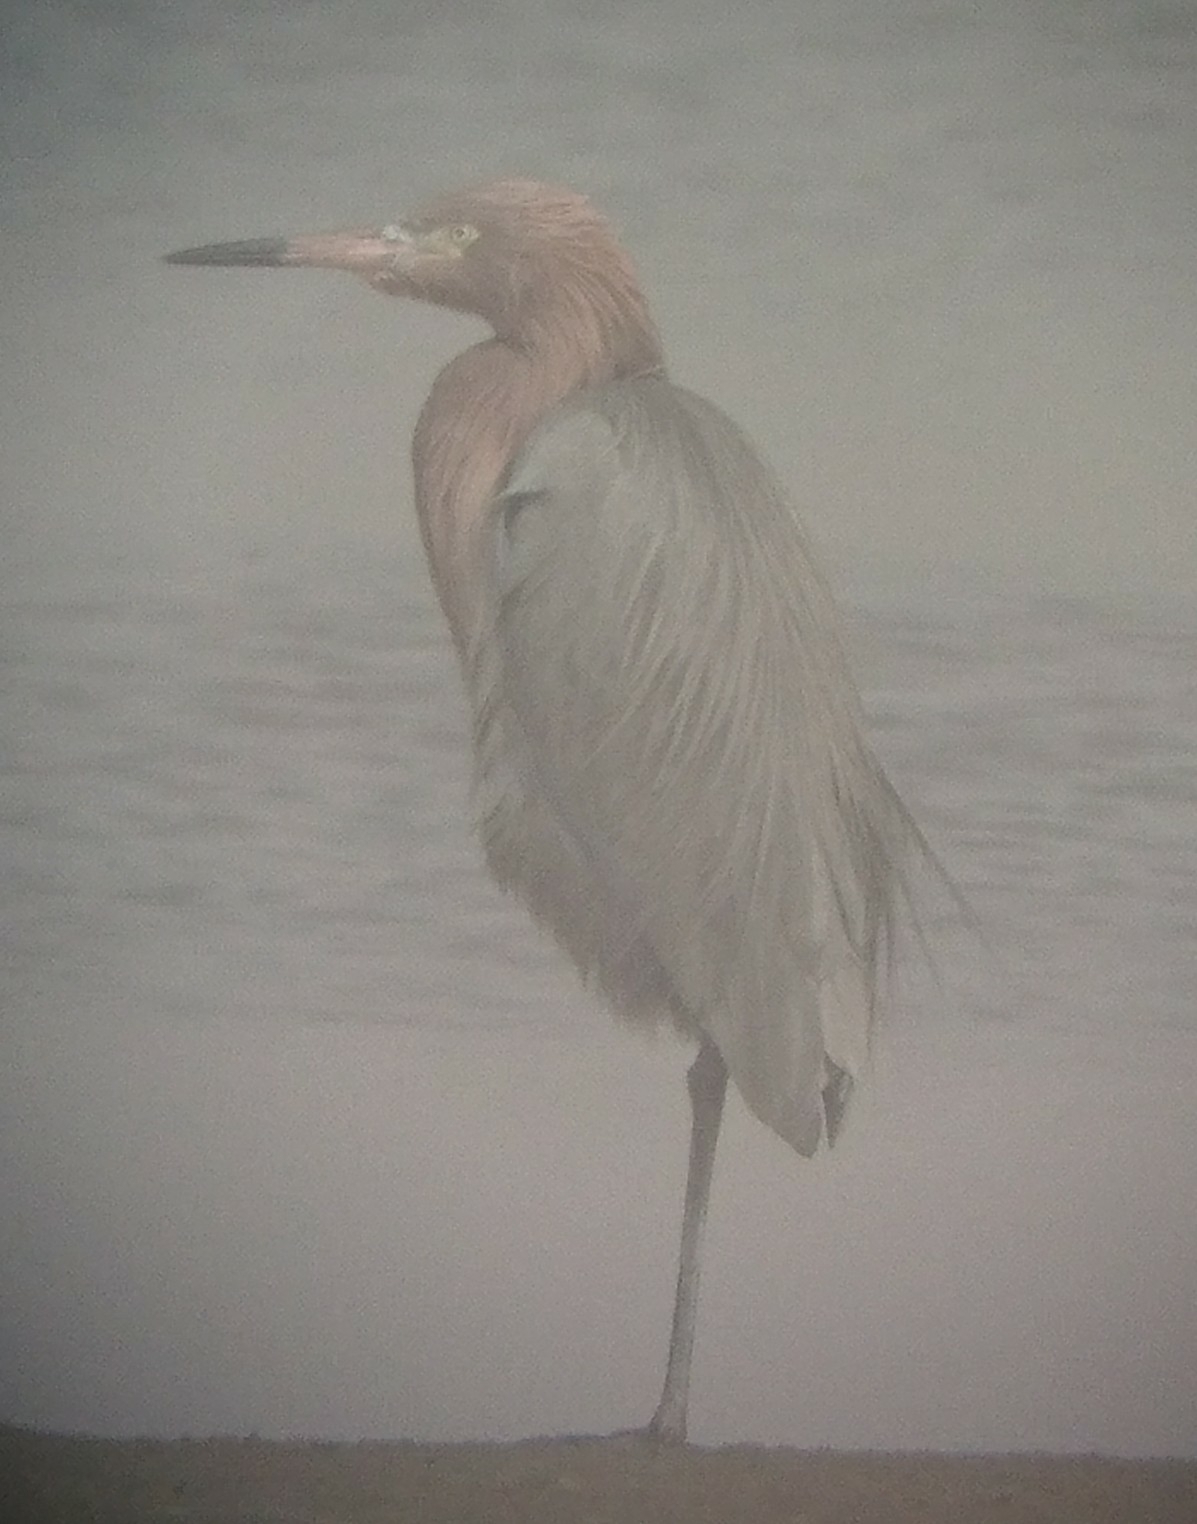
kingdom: Animalia
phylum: Chordata
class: Aves
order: Pelecaniformes
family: Ardeidae
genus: Egretta
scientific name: Egretta rufescens
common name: Reddish egret
